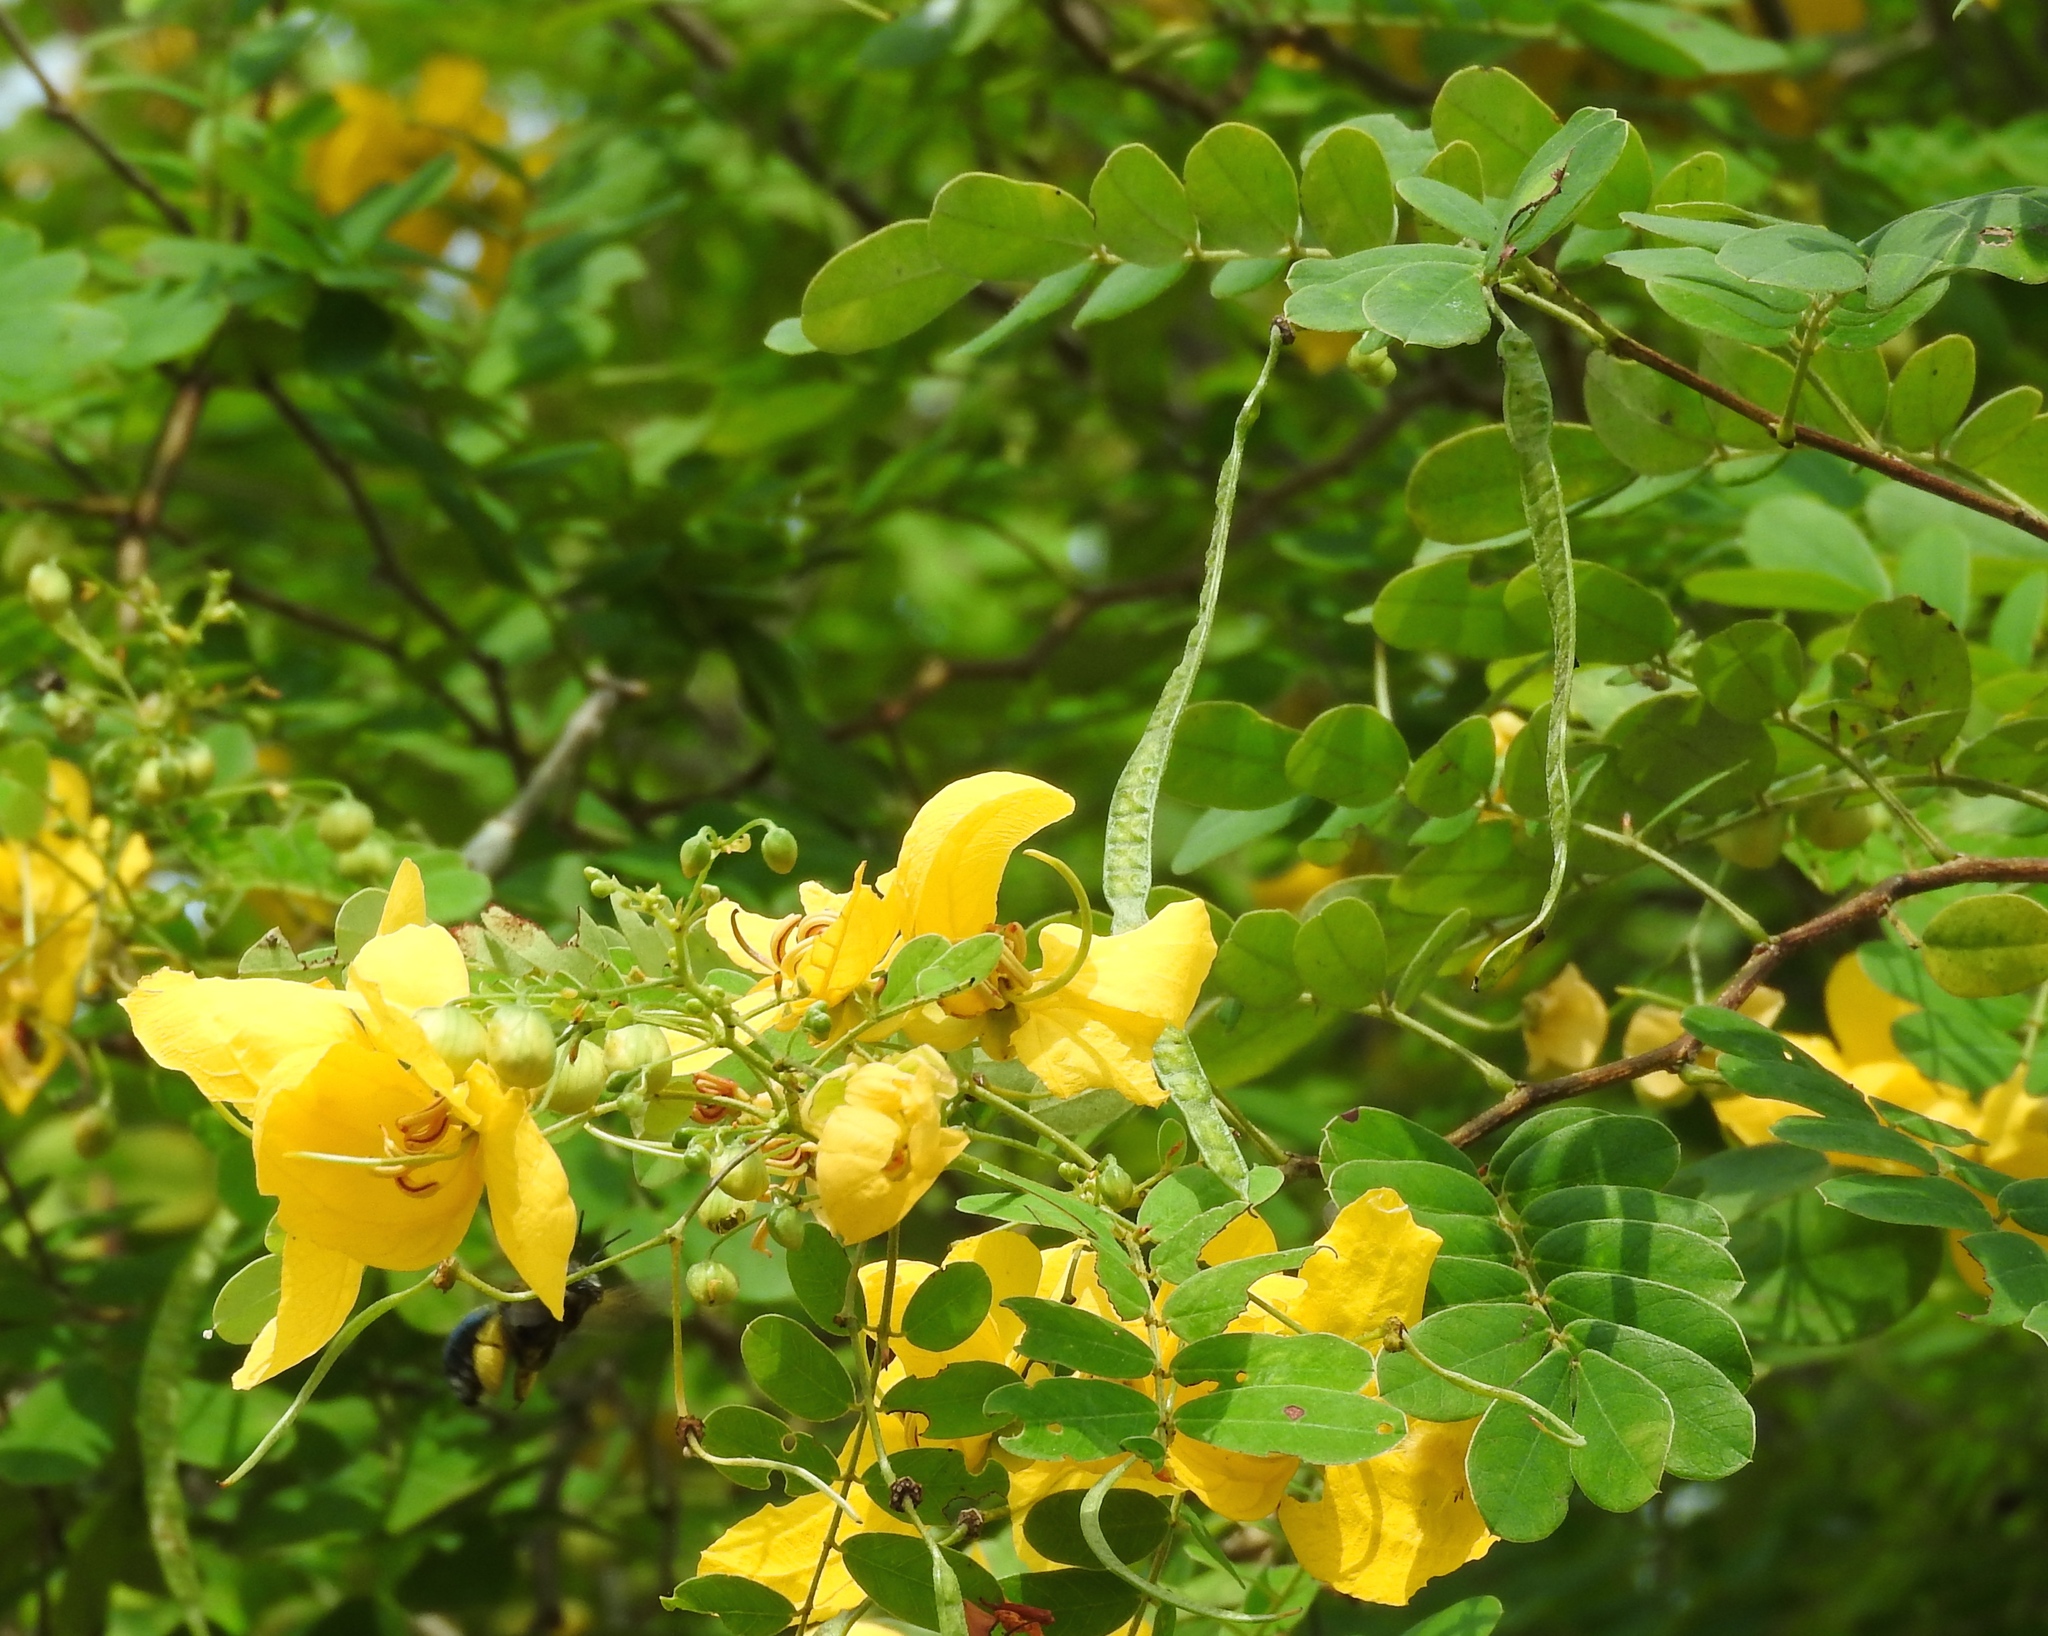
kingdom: Plantae
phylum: Tracheophyta
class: Magnoliopsida
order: Fabales
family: Fabaceae
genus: Senna
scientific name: Senna pallida
